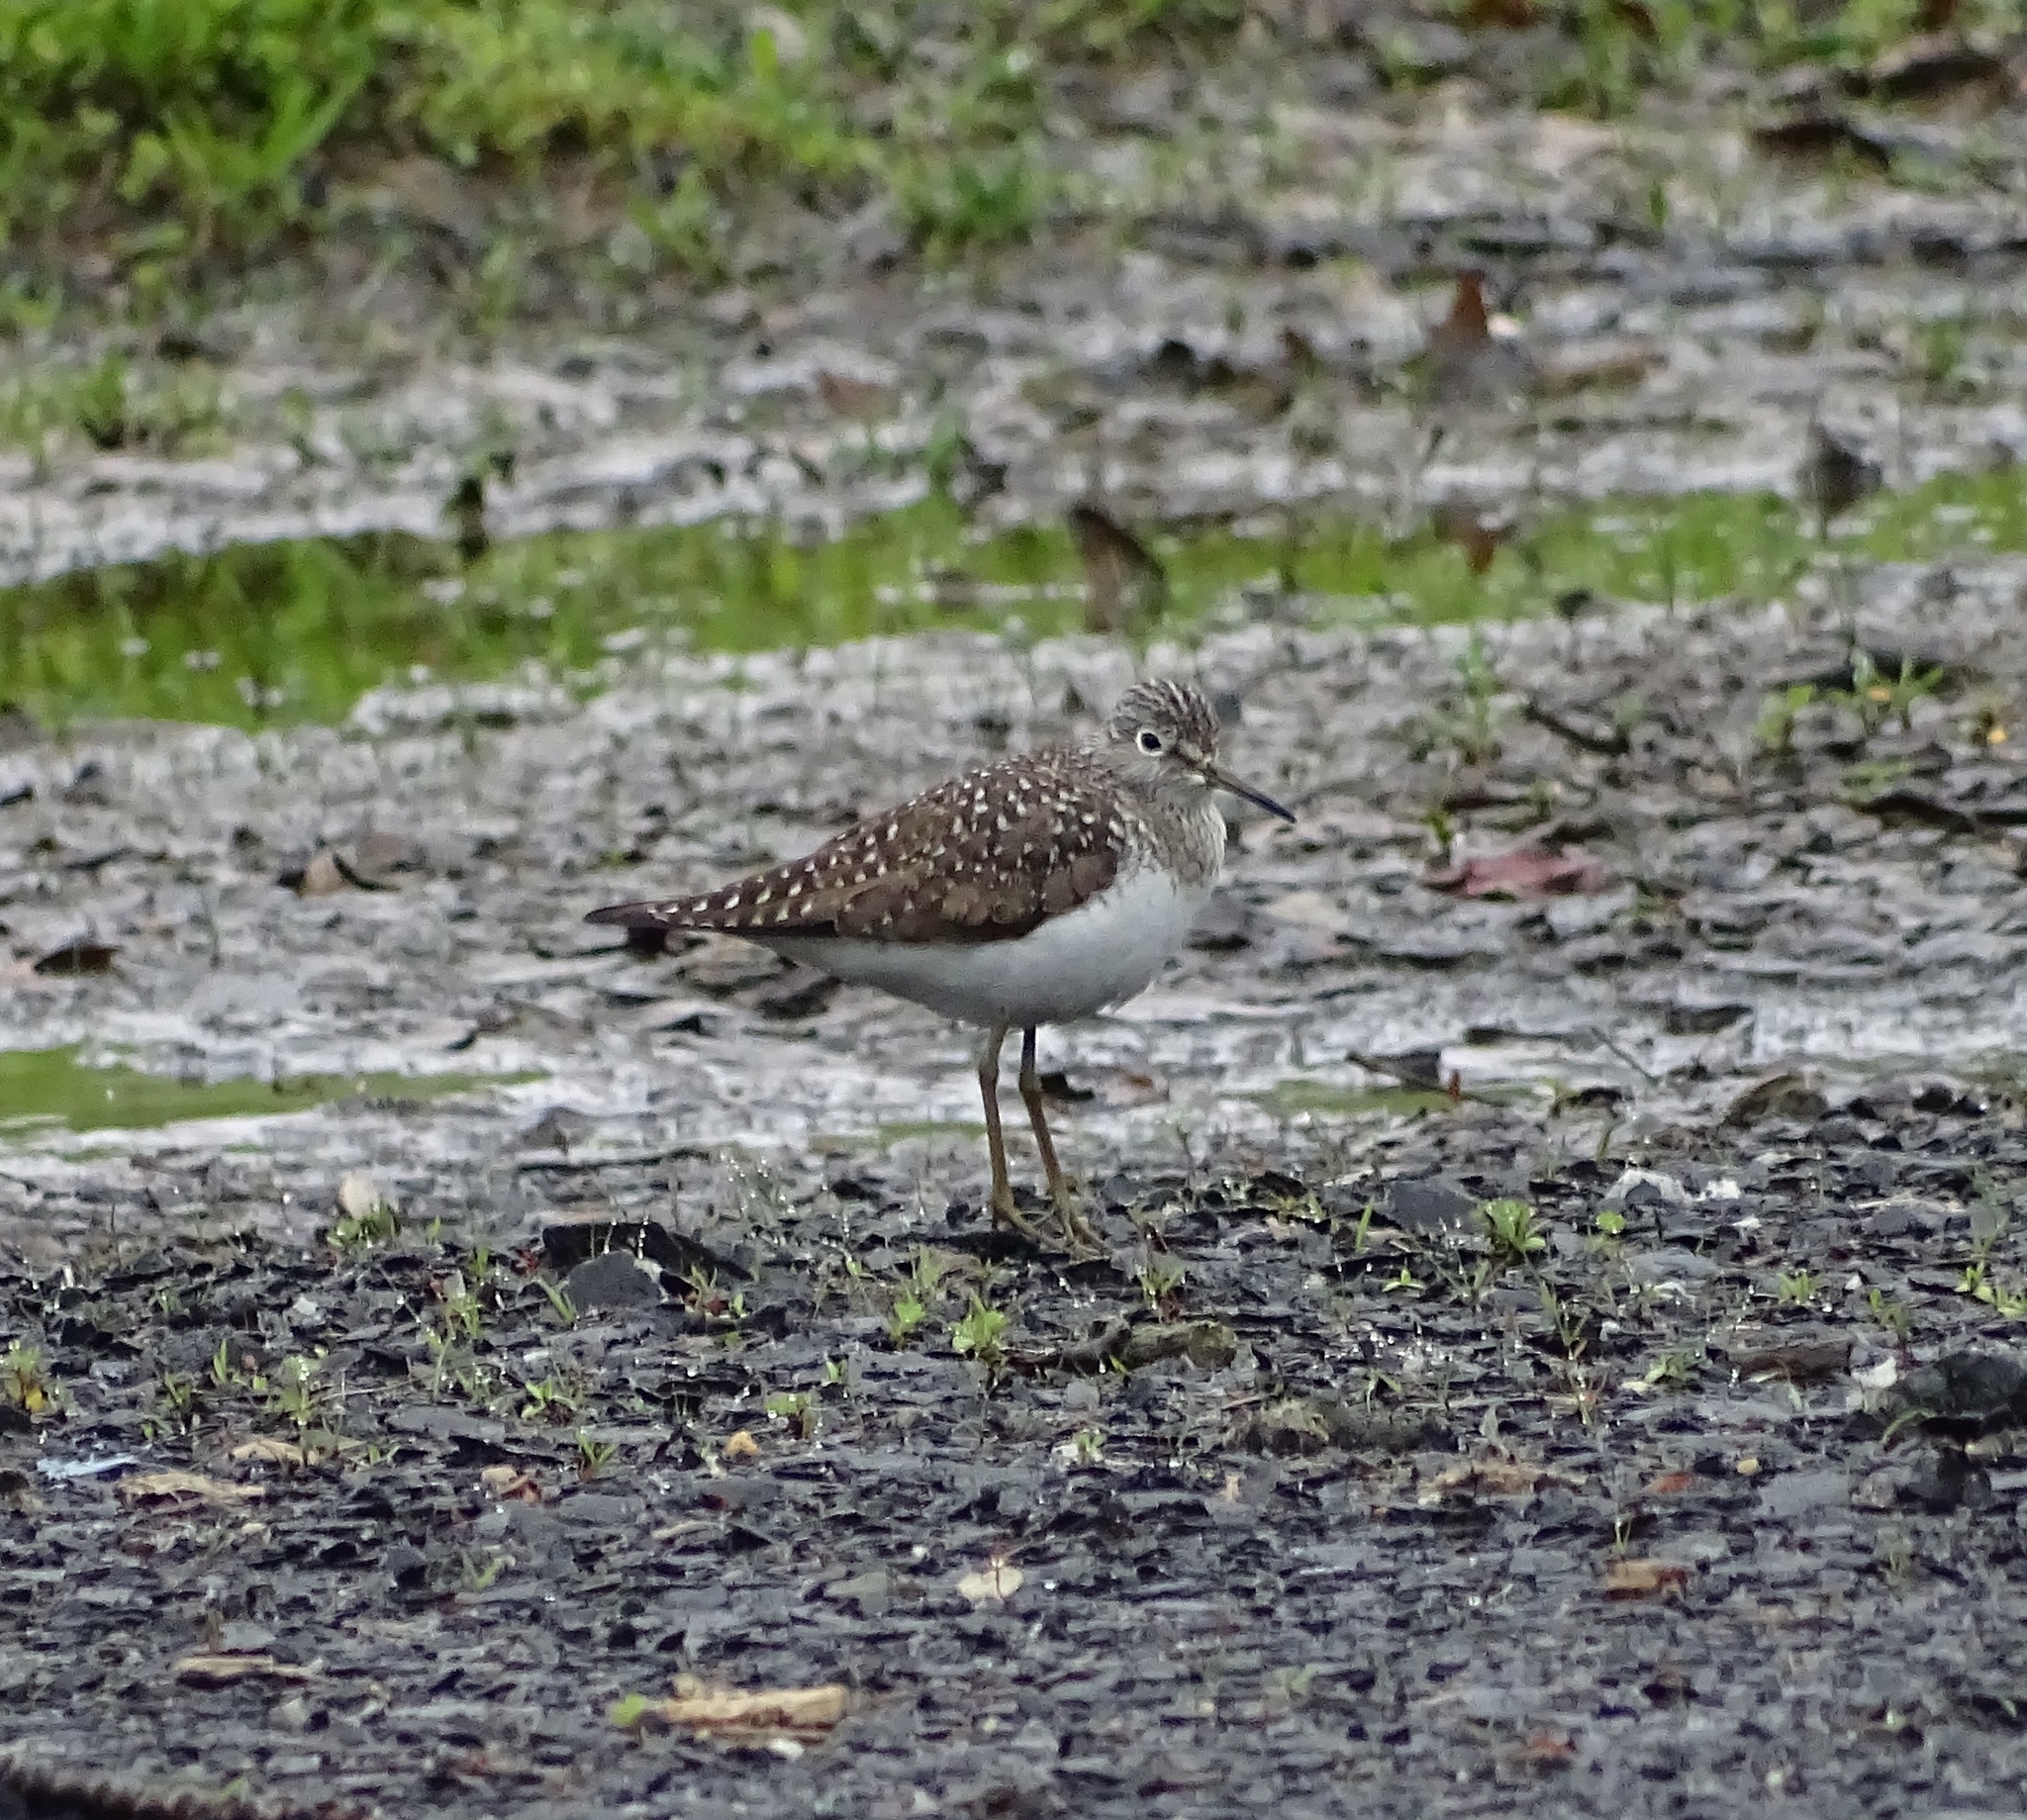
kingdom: Animalia
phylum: Chordata
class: Aves
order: Charadriiformes
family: Scolopacidae
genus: Tringa
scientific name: Tringa solitaria
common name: Solitary sandpiper
